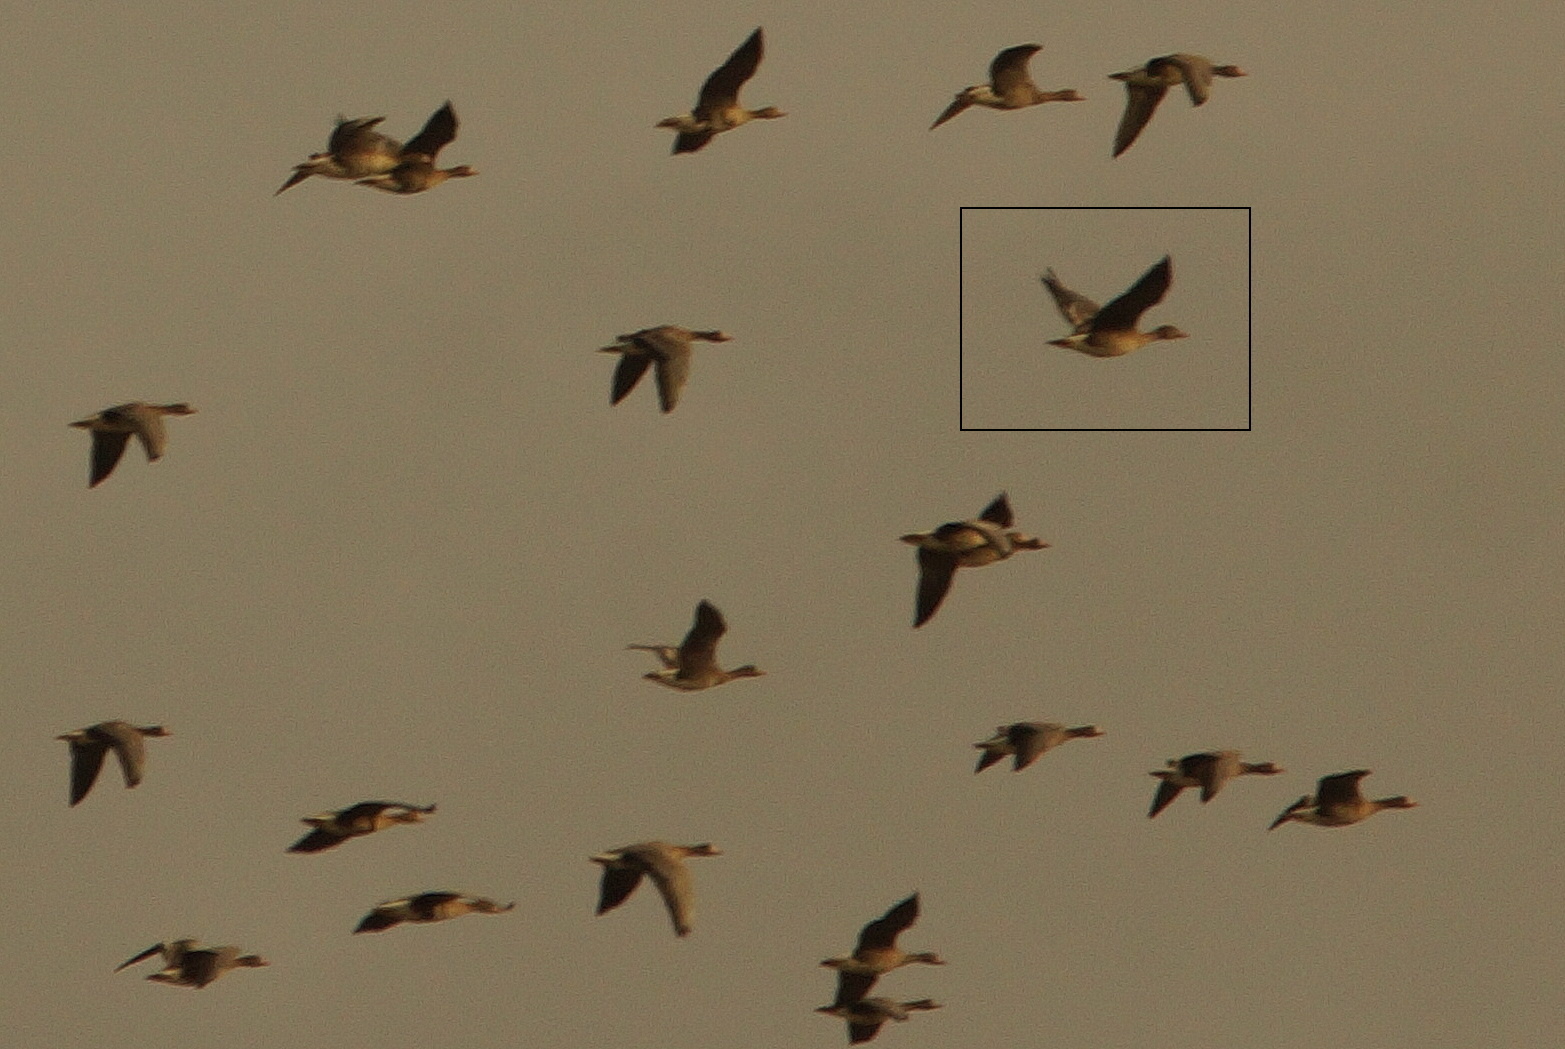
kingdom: Animalia
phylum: Chordata
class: Aves
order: Anseriformes
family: Anatidae
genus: Anser
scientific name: Anser serrirostris
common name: Tundra bean goose
